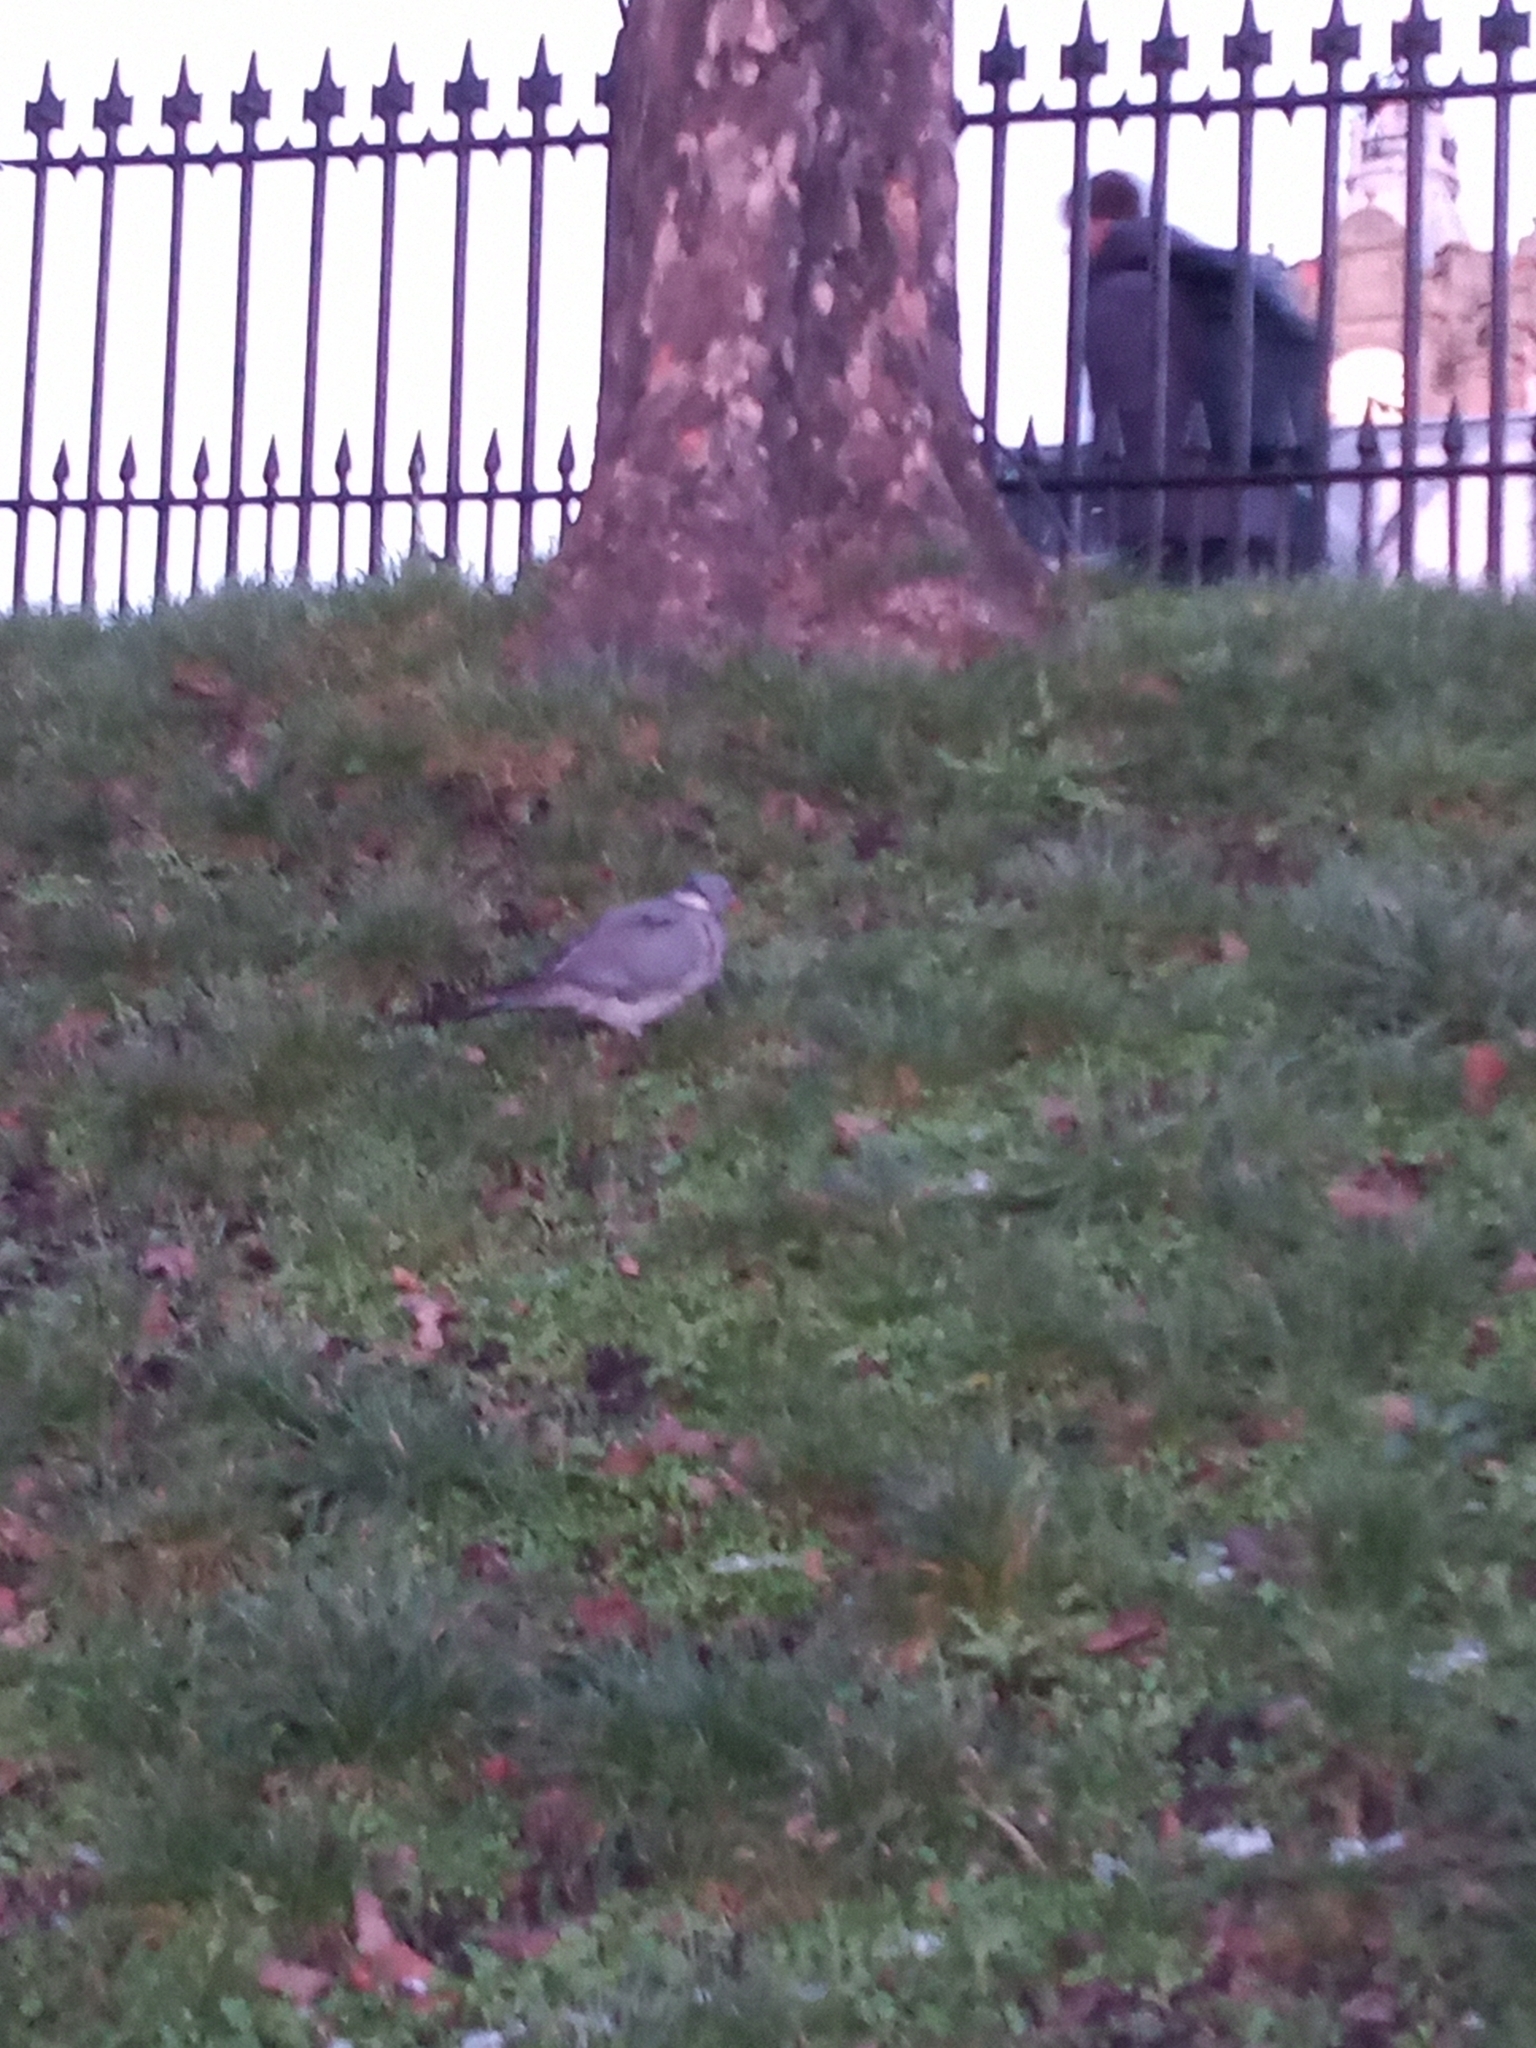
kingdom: Animalia
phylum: Chordata
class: Aves
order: Columbiformes
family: Columbidae
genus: Columba
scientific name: Columba palumbus
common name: Common wood pigeon
